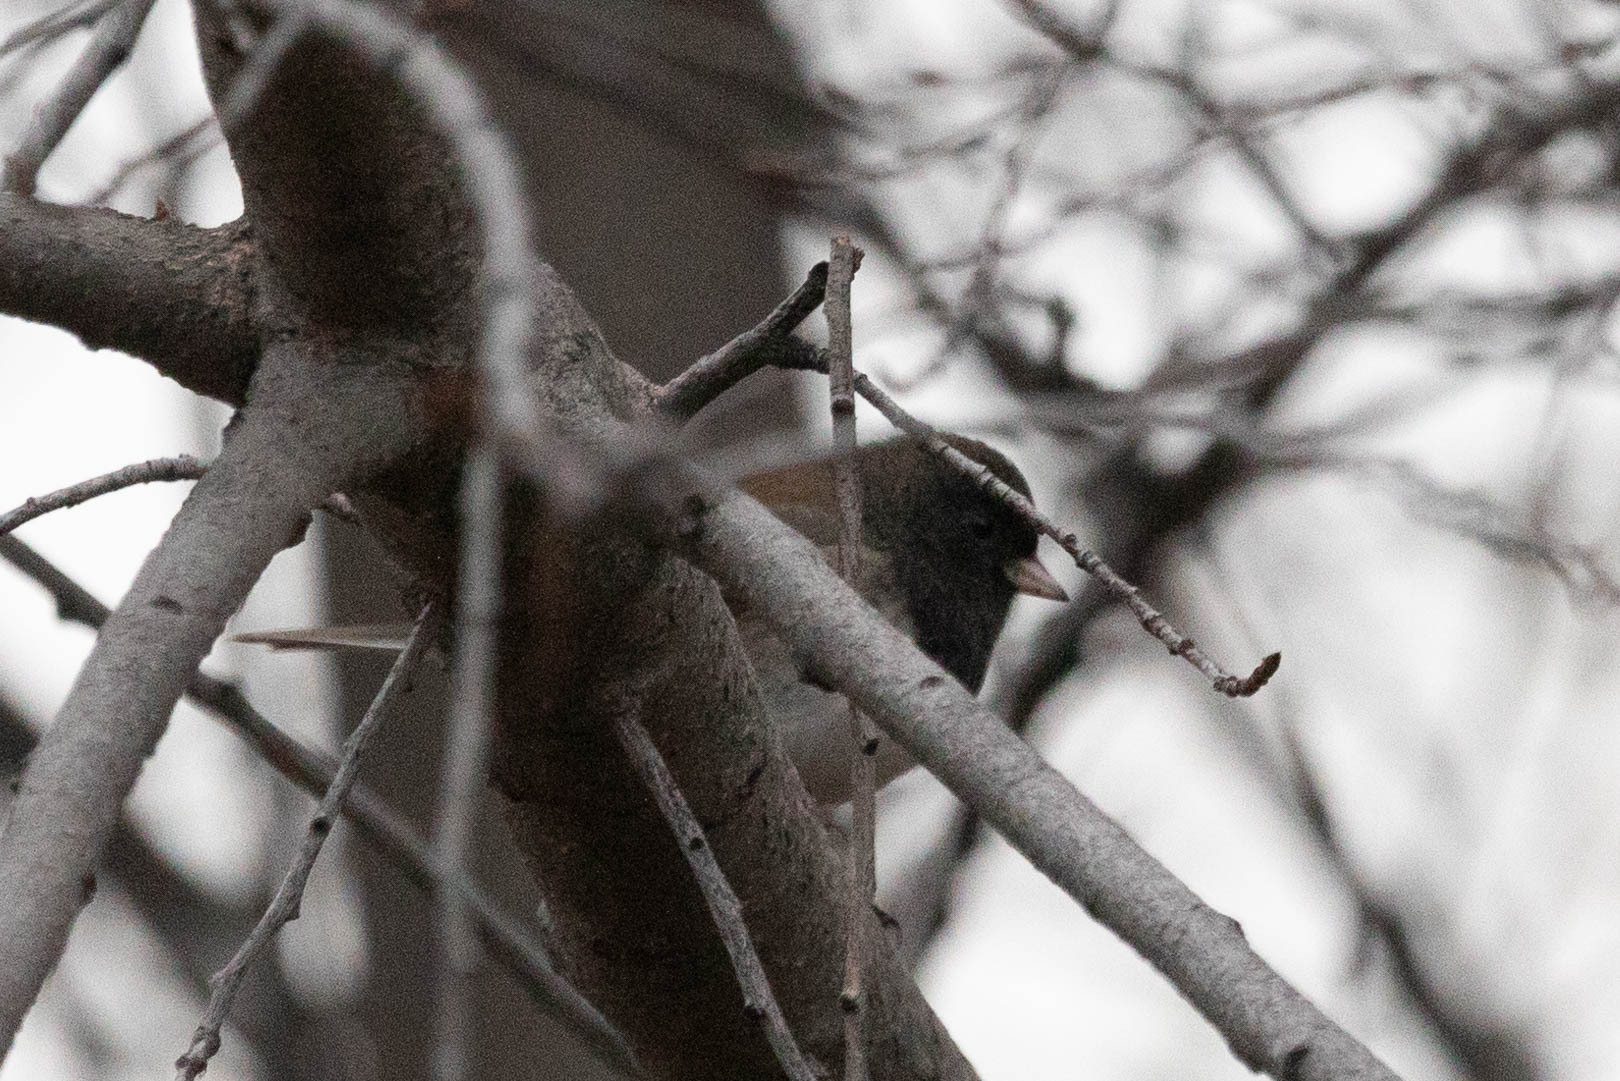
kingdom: Animalia
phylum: Chordata
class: Aves
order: Passeriformes
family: Passerellidae
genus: Junco
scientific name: Junco hyemalis
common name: Dark-eyed junco
